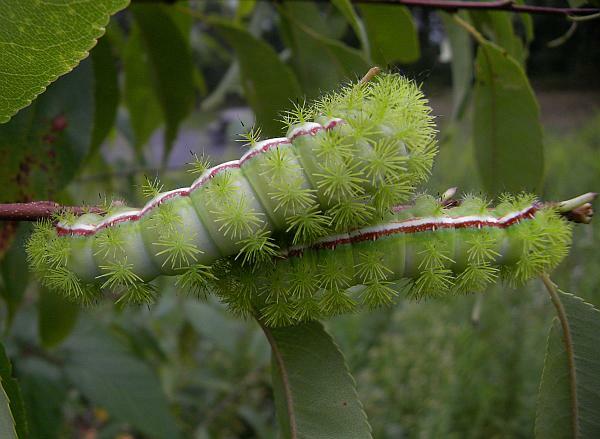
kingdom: Animalia
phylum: Arthropoda
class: Insecta
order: Lepidoptera
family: Saturniidae
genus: Automeris
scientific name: Automeris io
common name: Io moth
